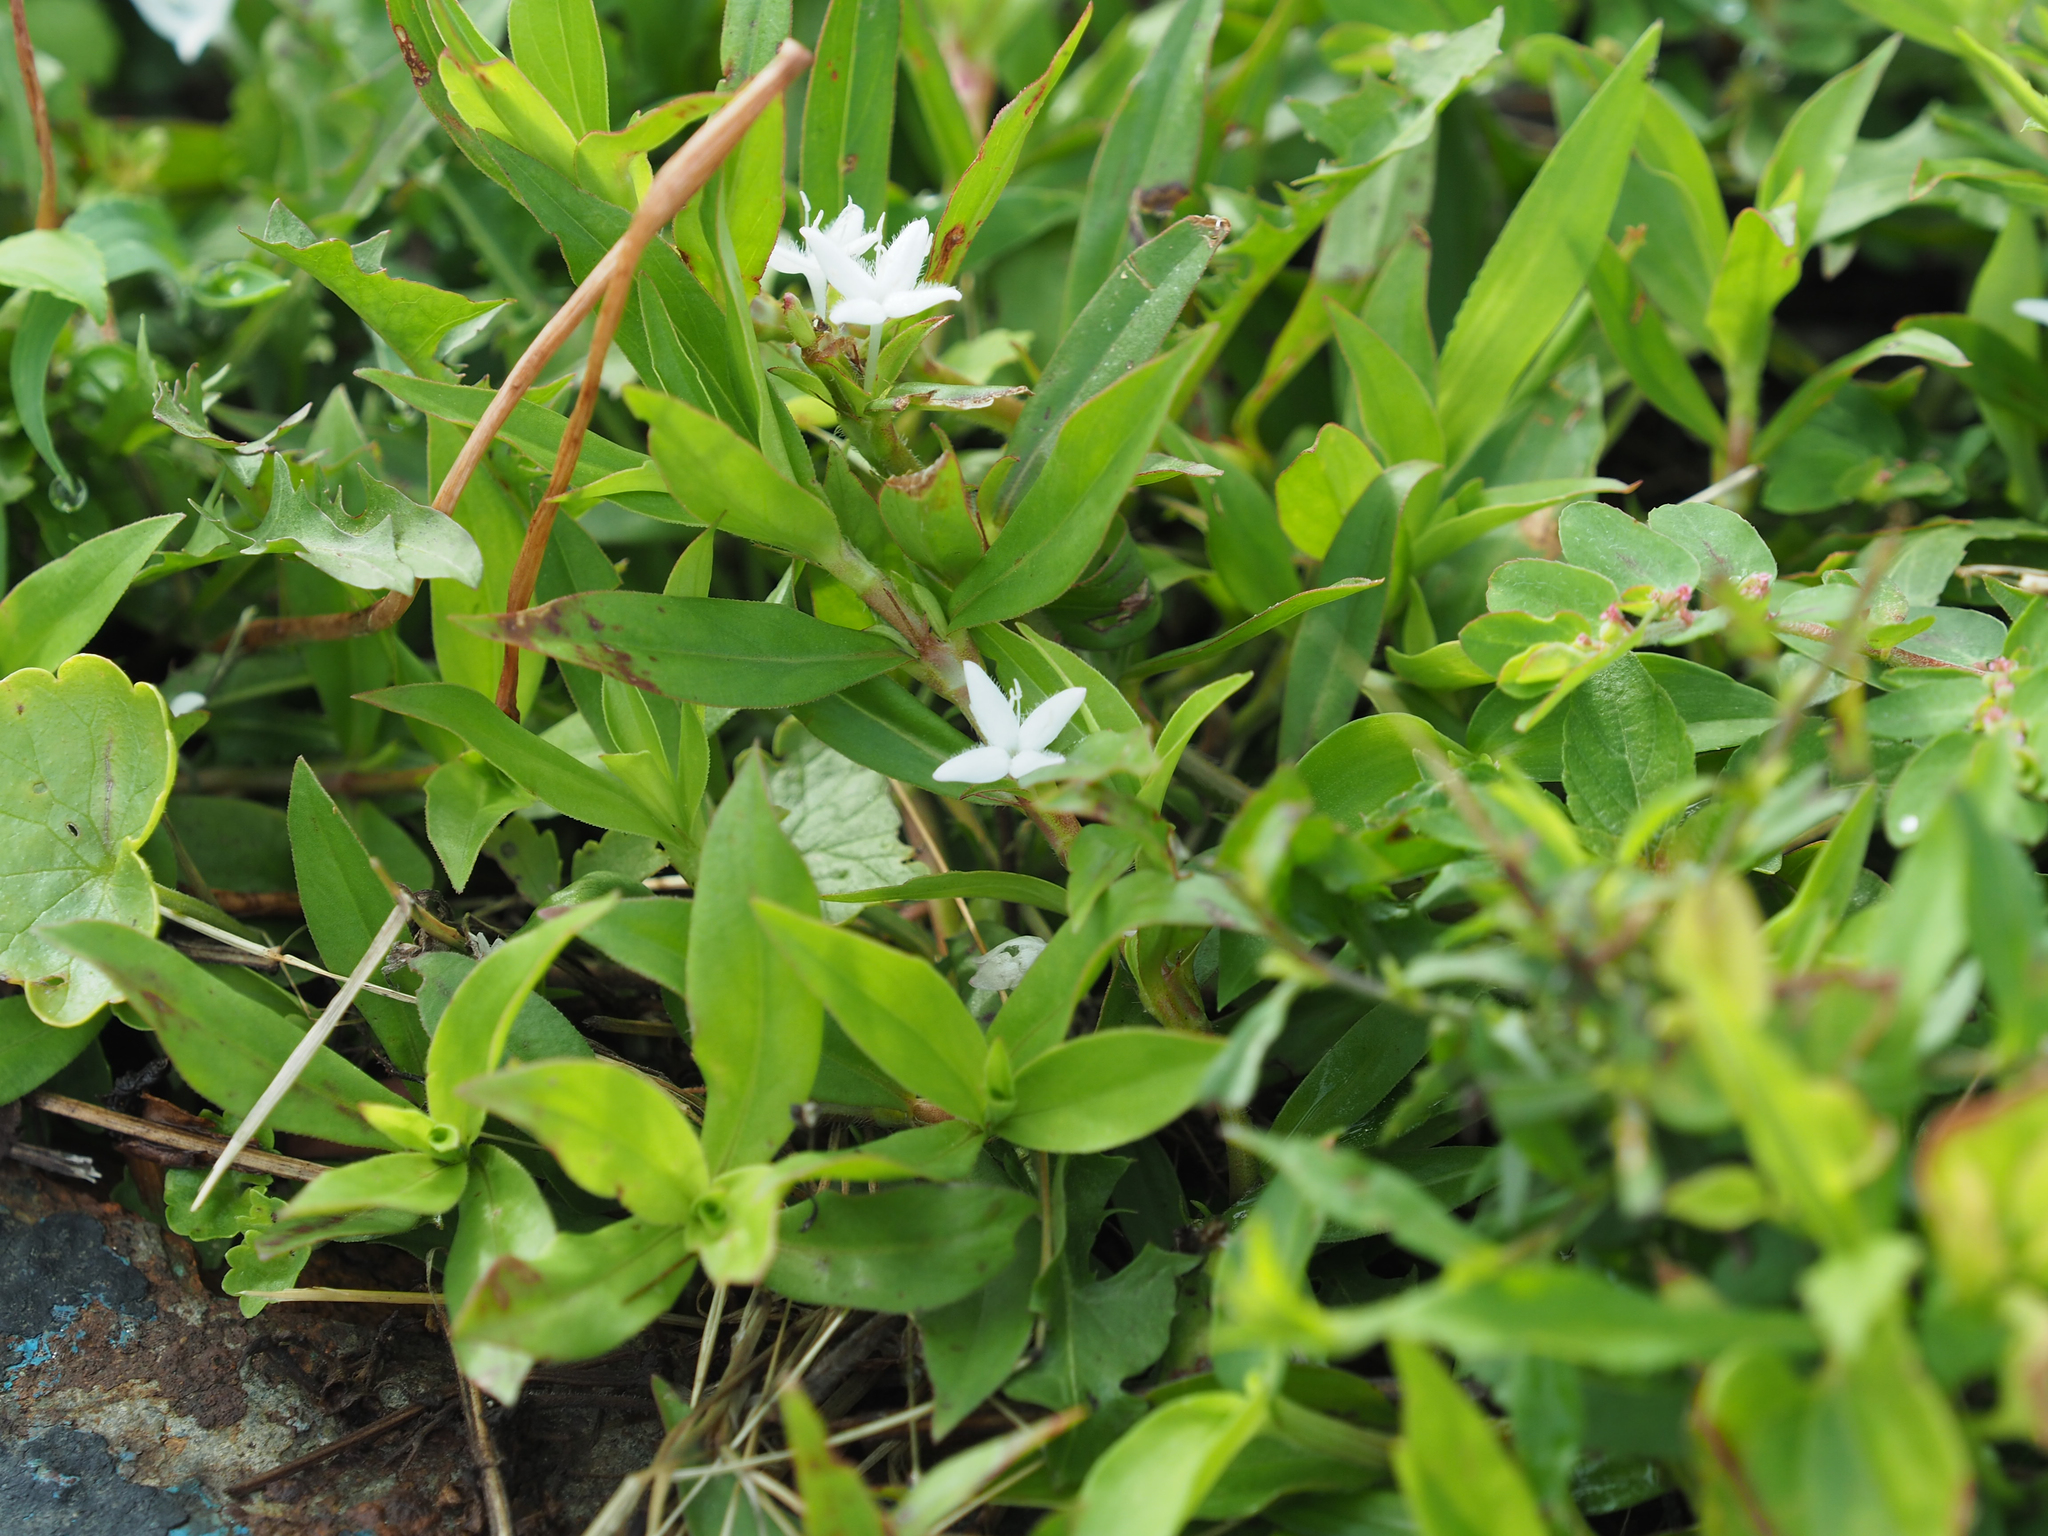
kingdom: Plantae
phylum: Tracheophyta
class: Magnoliopsida
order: Gentianales
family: Rubiaceae
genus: Diodia
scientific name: Diodia virginiana
